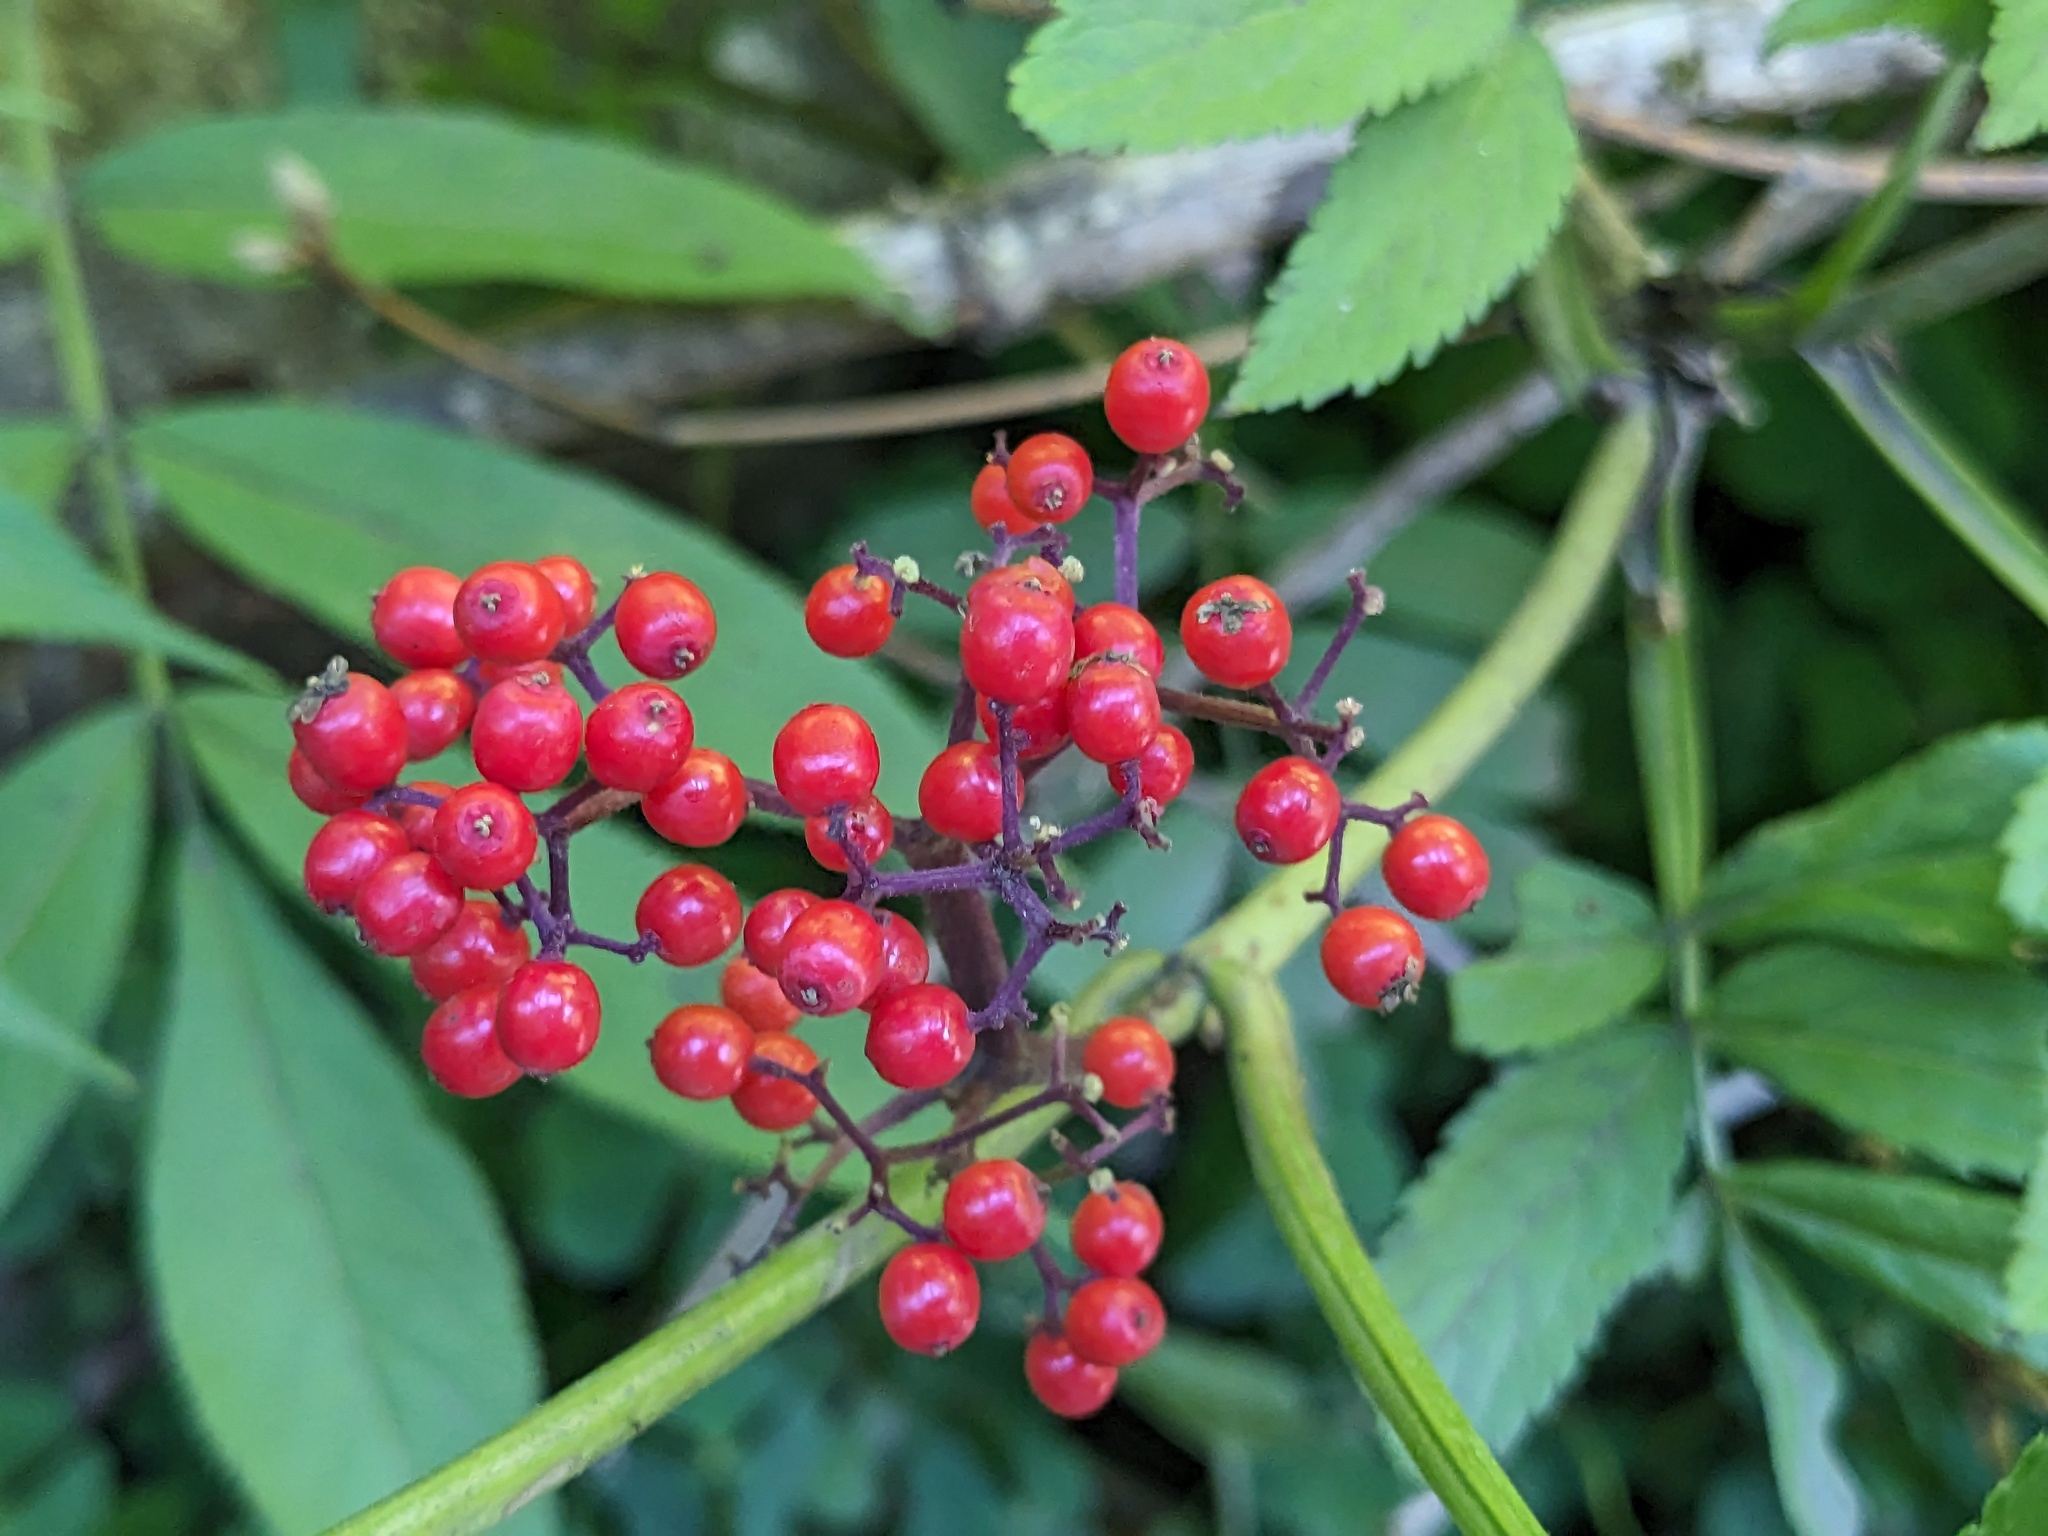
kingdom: Plantae
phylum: Tracheophyta
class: Magnoliopsida
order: Dipsacales
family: Viburnaceae
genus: Sambucus
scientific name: Sambucus racemosa
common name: Red-berried elder
